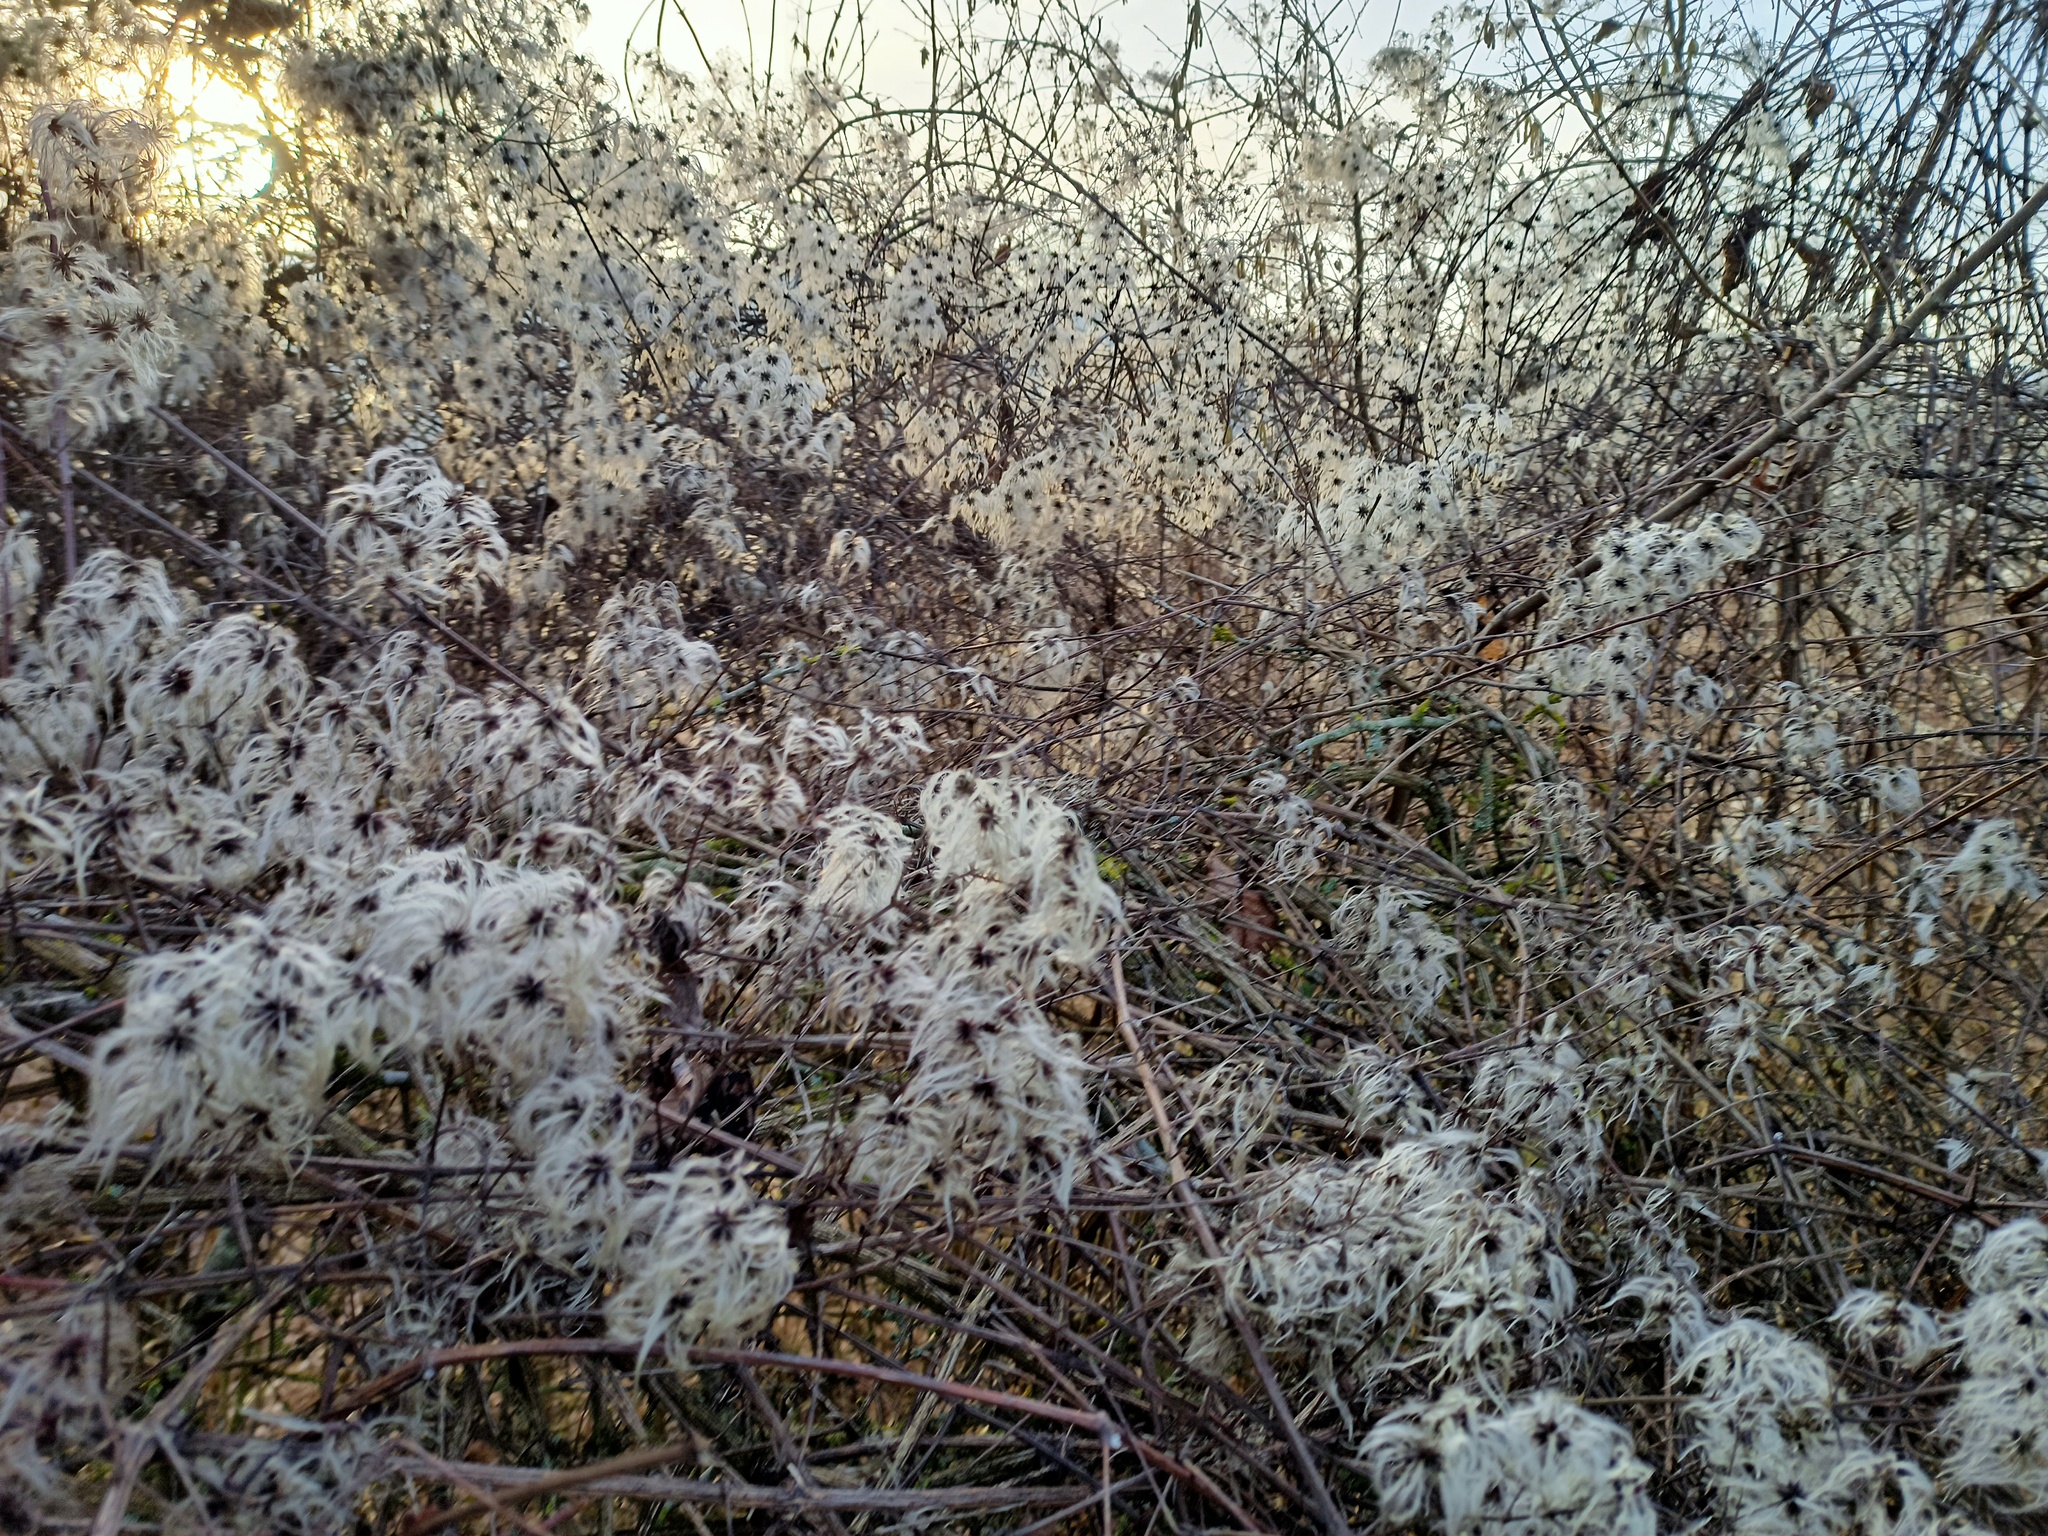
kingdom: Plantae
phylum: Tracheophyta
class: Magnoliopsida
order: Ranunculales
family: Ranunculaceae
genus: Clematis
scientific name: Clematis vitalba
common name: Evergreen clematis
